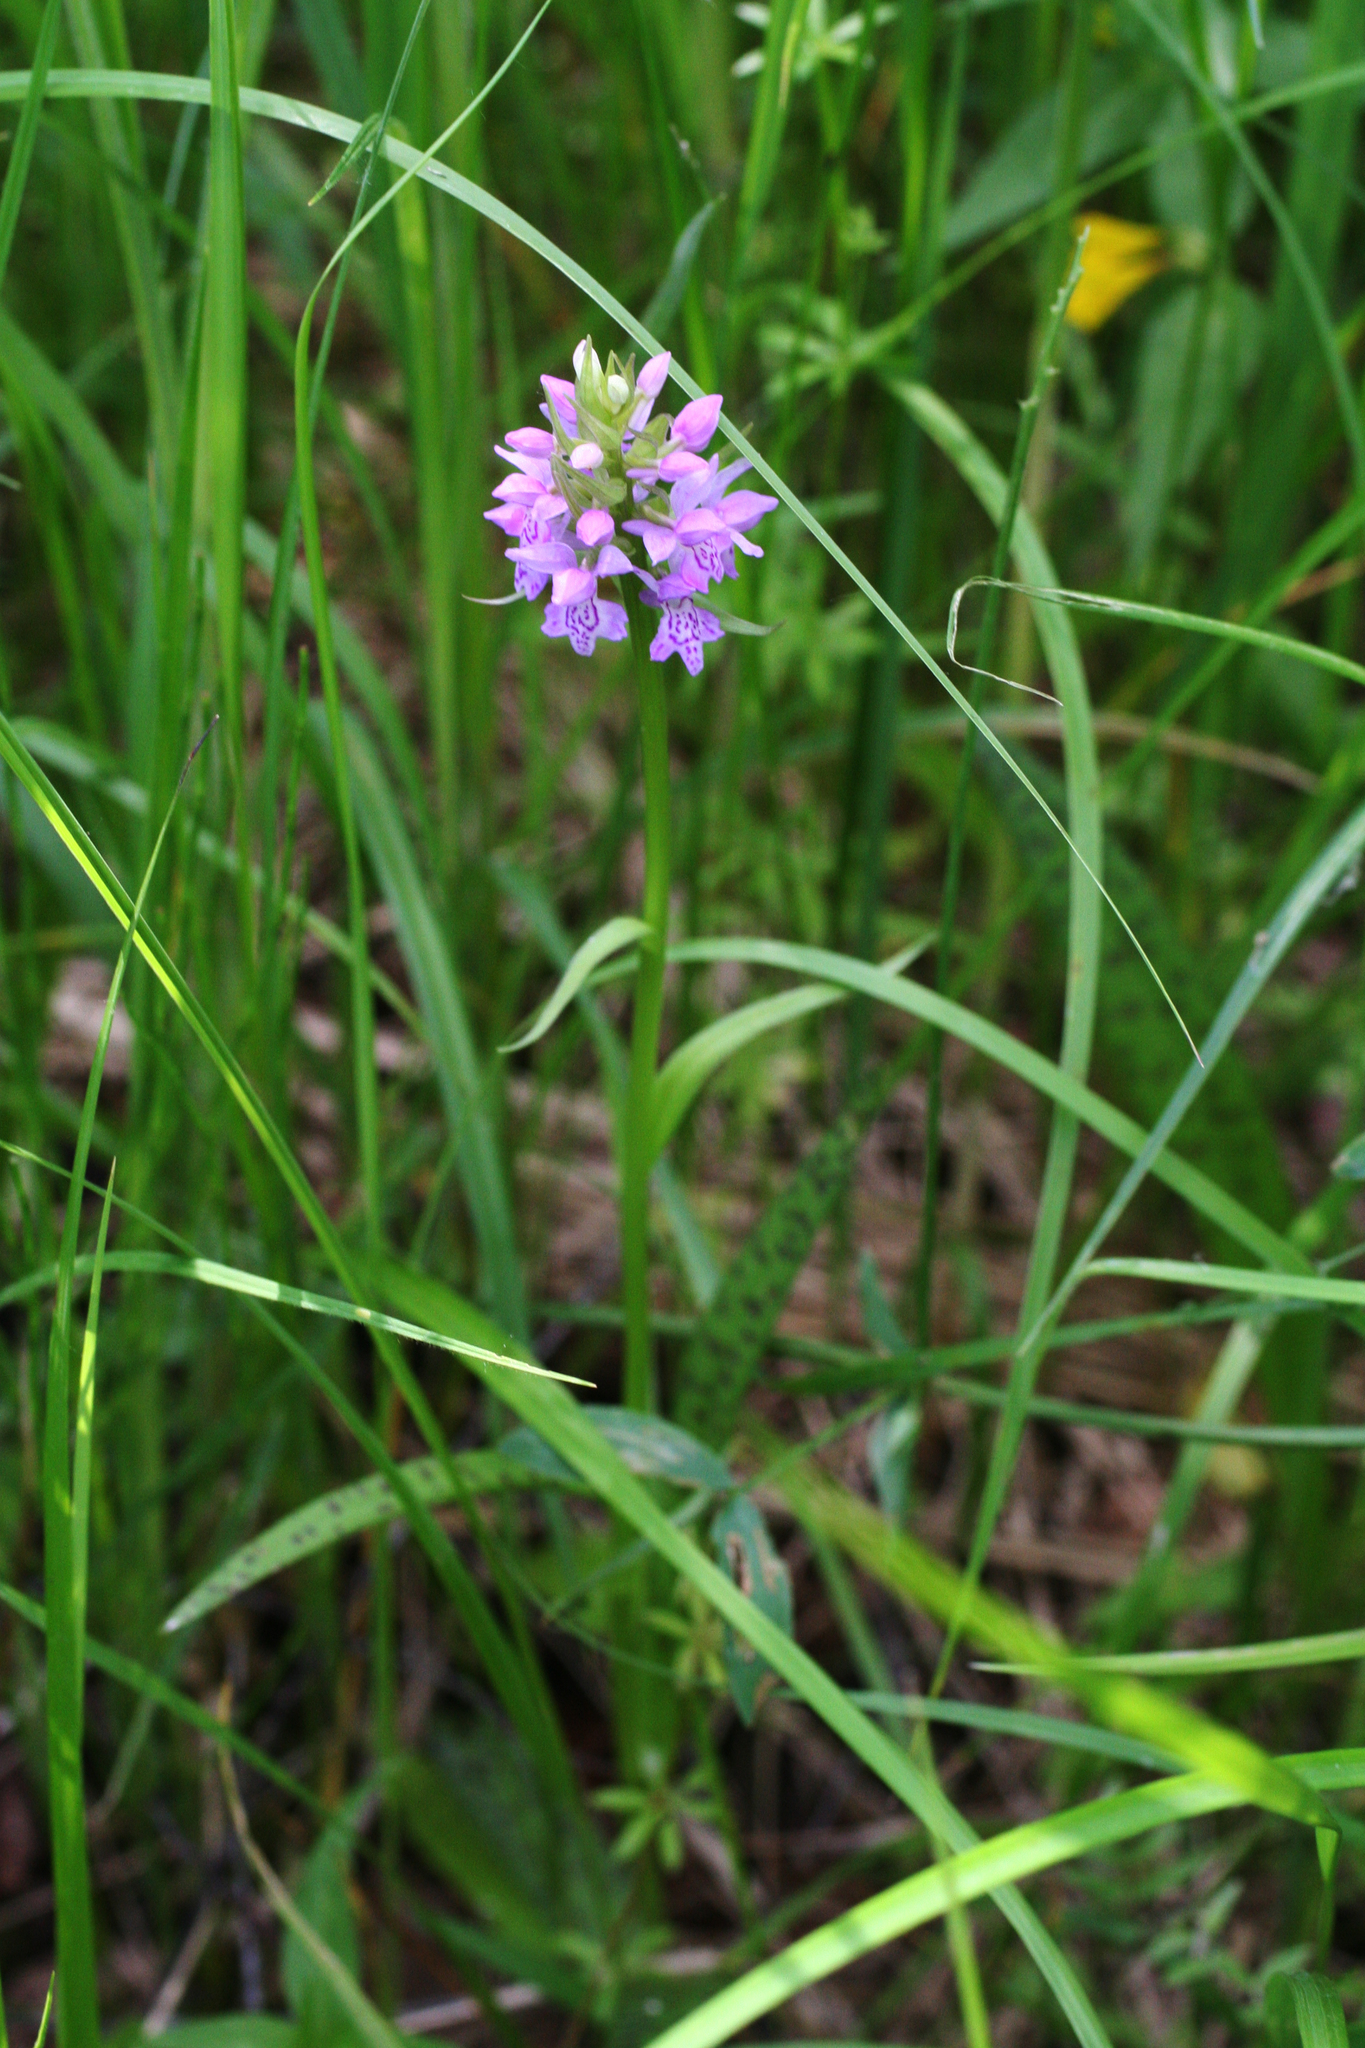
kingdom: Plantae
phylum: Tracheophyta
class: Liliopsida
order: Asparagales
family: Orchidaceae
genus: Dactylorhiza
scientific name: Dactylorhiza majalis
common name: Marsh orchid
